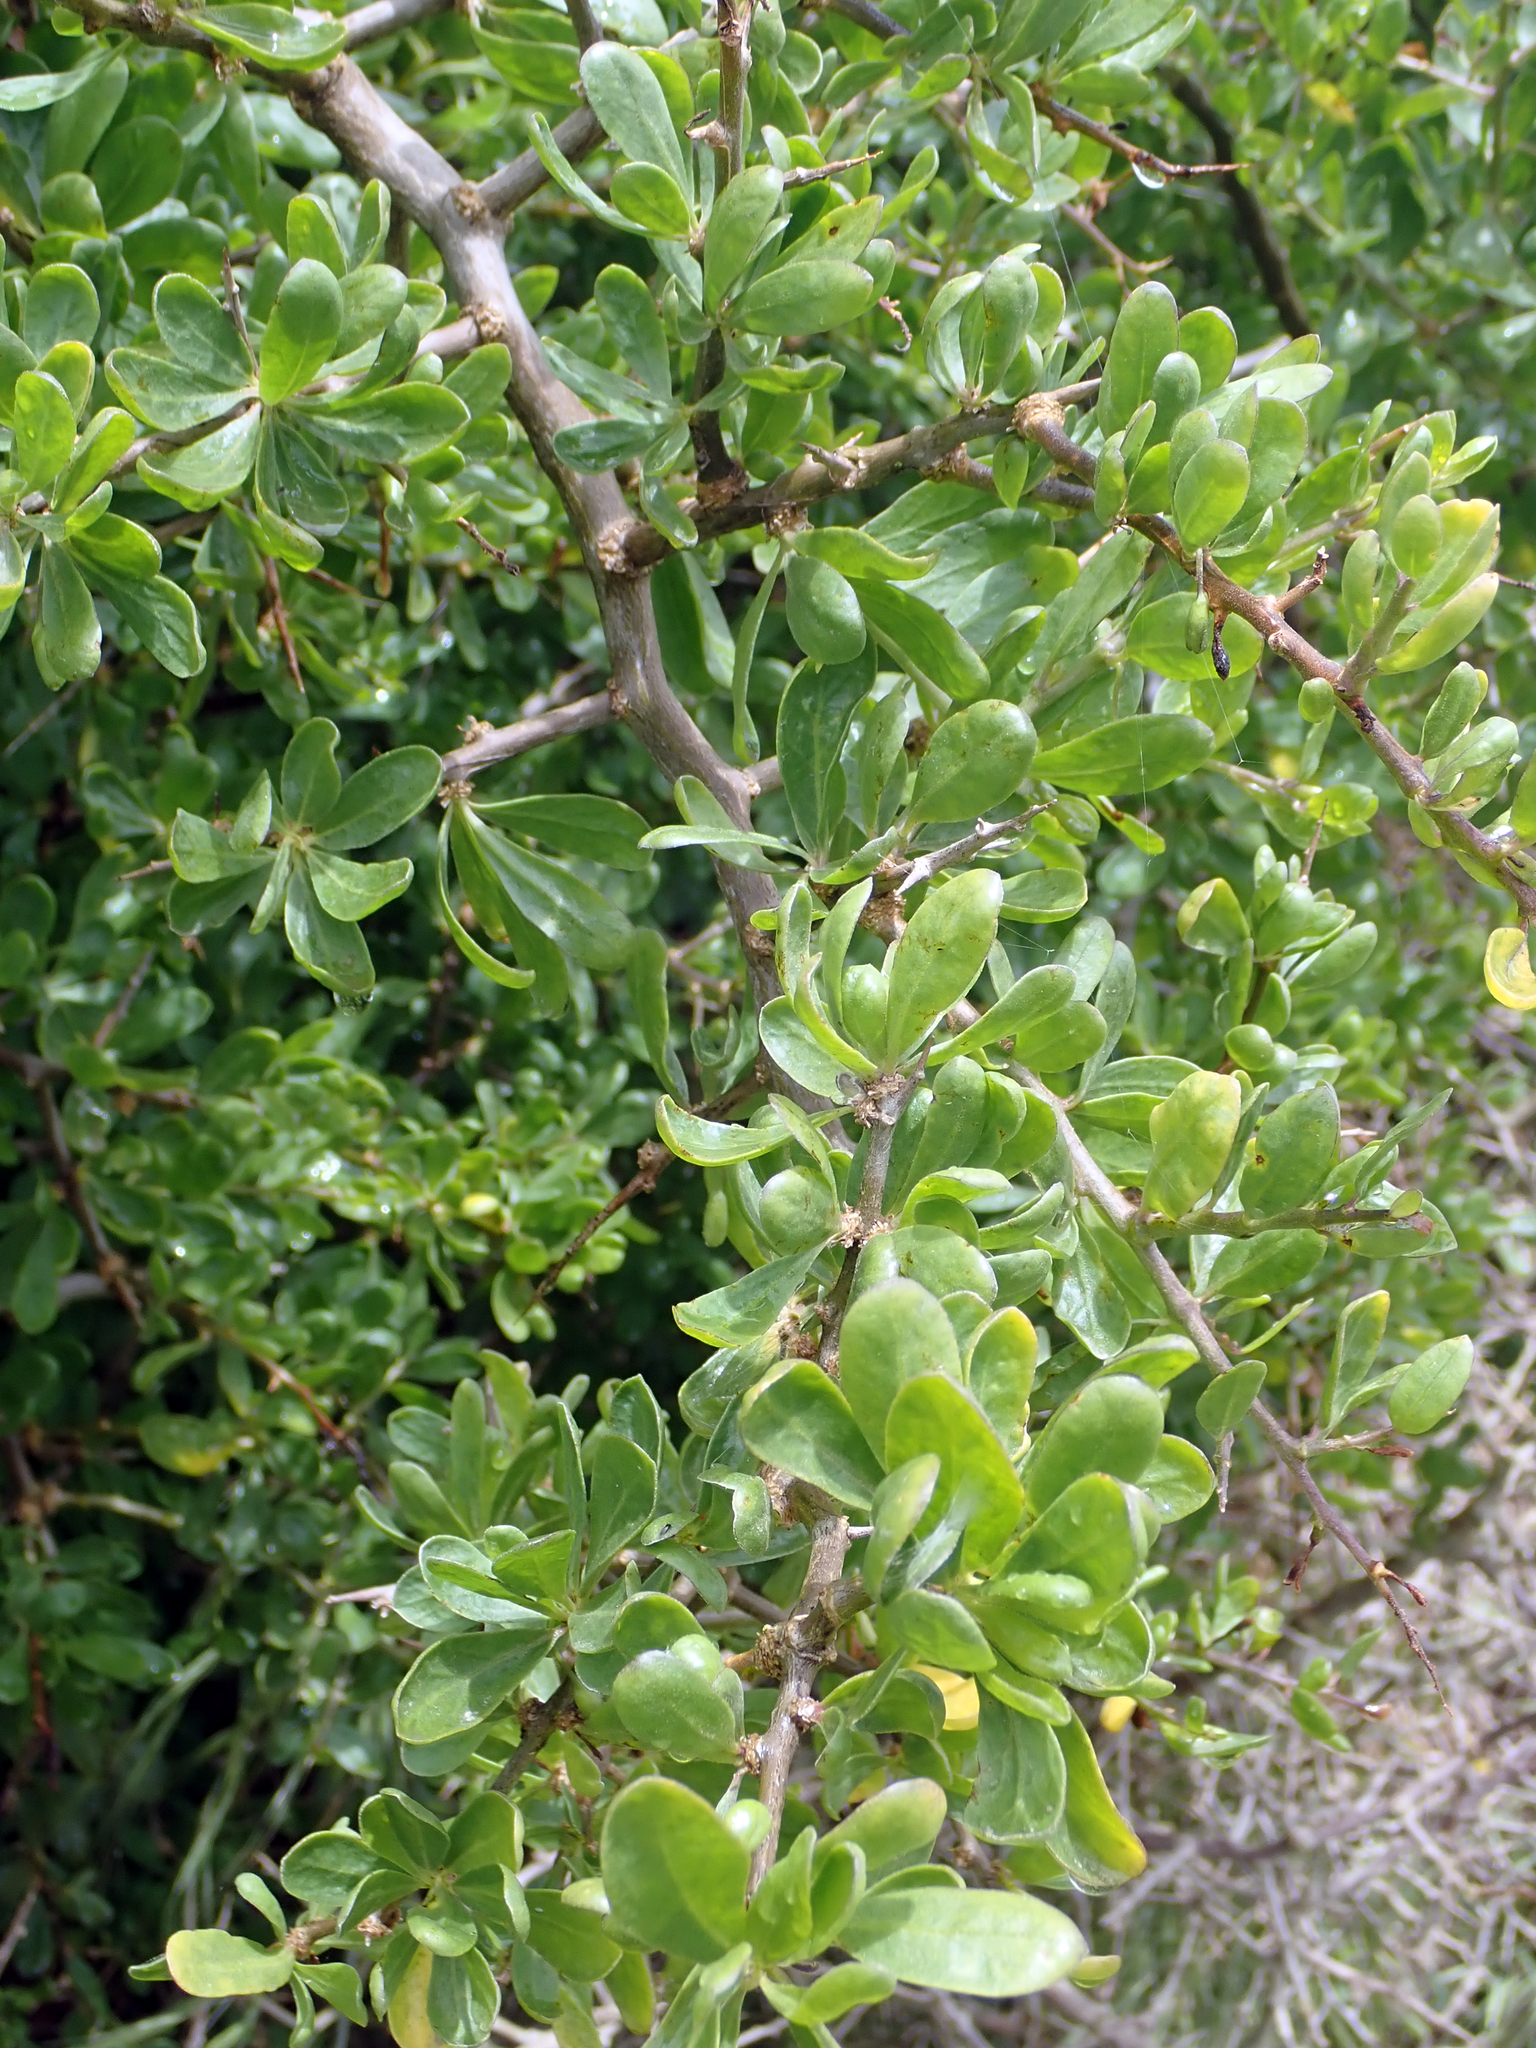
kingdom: Plantae
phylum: Tracheophyta
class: Magnoliopsida
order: Solanales
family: Solanaceae
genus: Lycium
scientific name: Lycium ferocissimum
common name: African boxthorn
